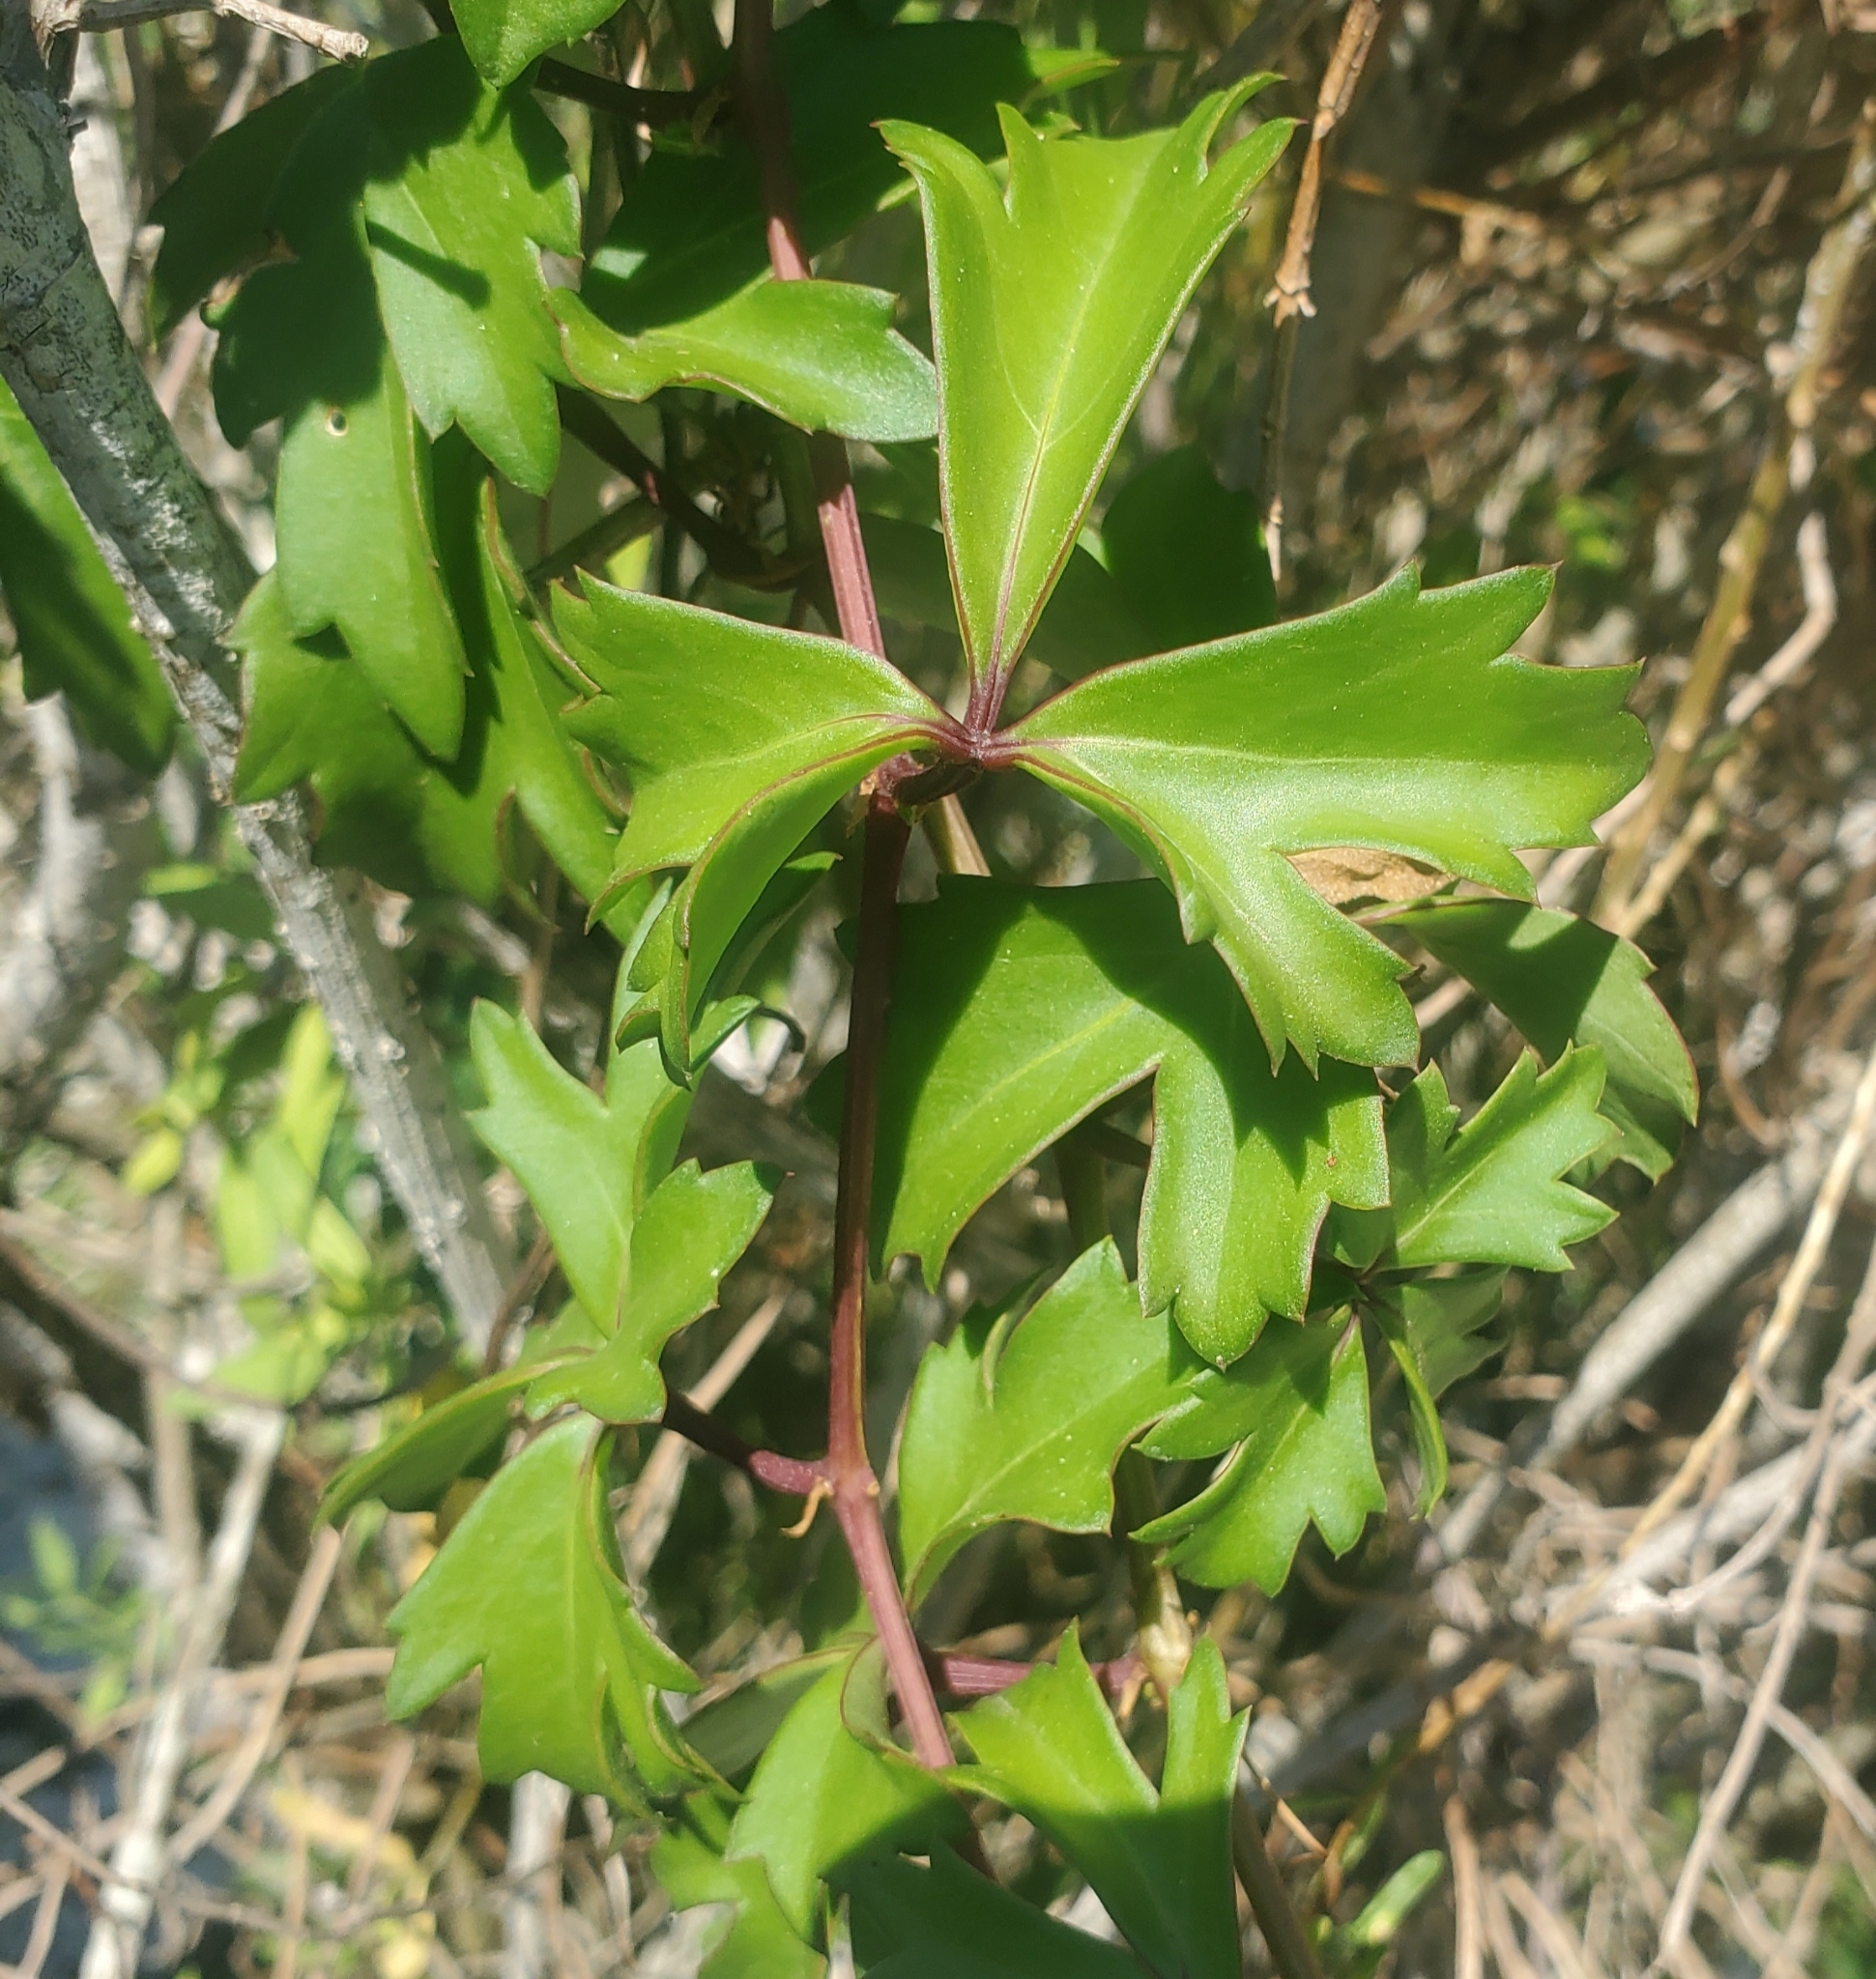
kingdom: Plantae
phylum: Tracheophyta
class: Magnoliopsida
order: Vitales
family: Vitaceae
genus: Cissus
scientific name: Cissus trifoliata
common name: Vine-sorrel
